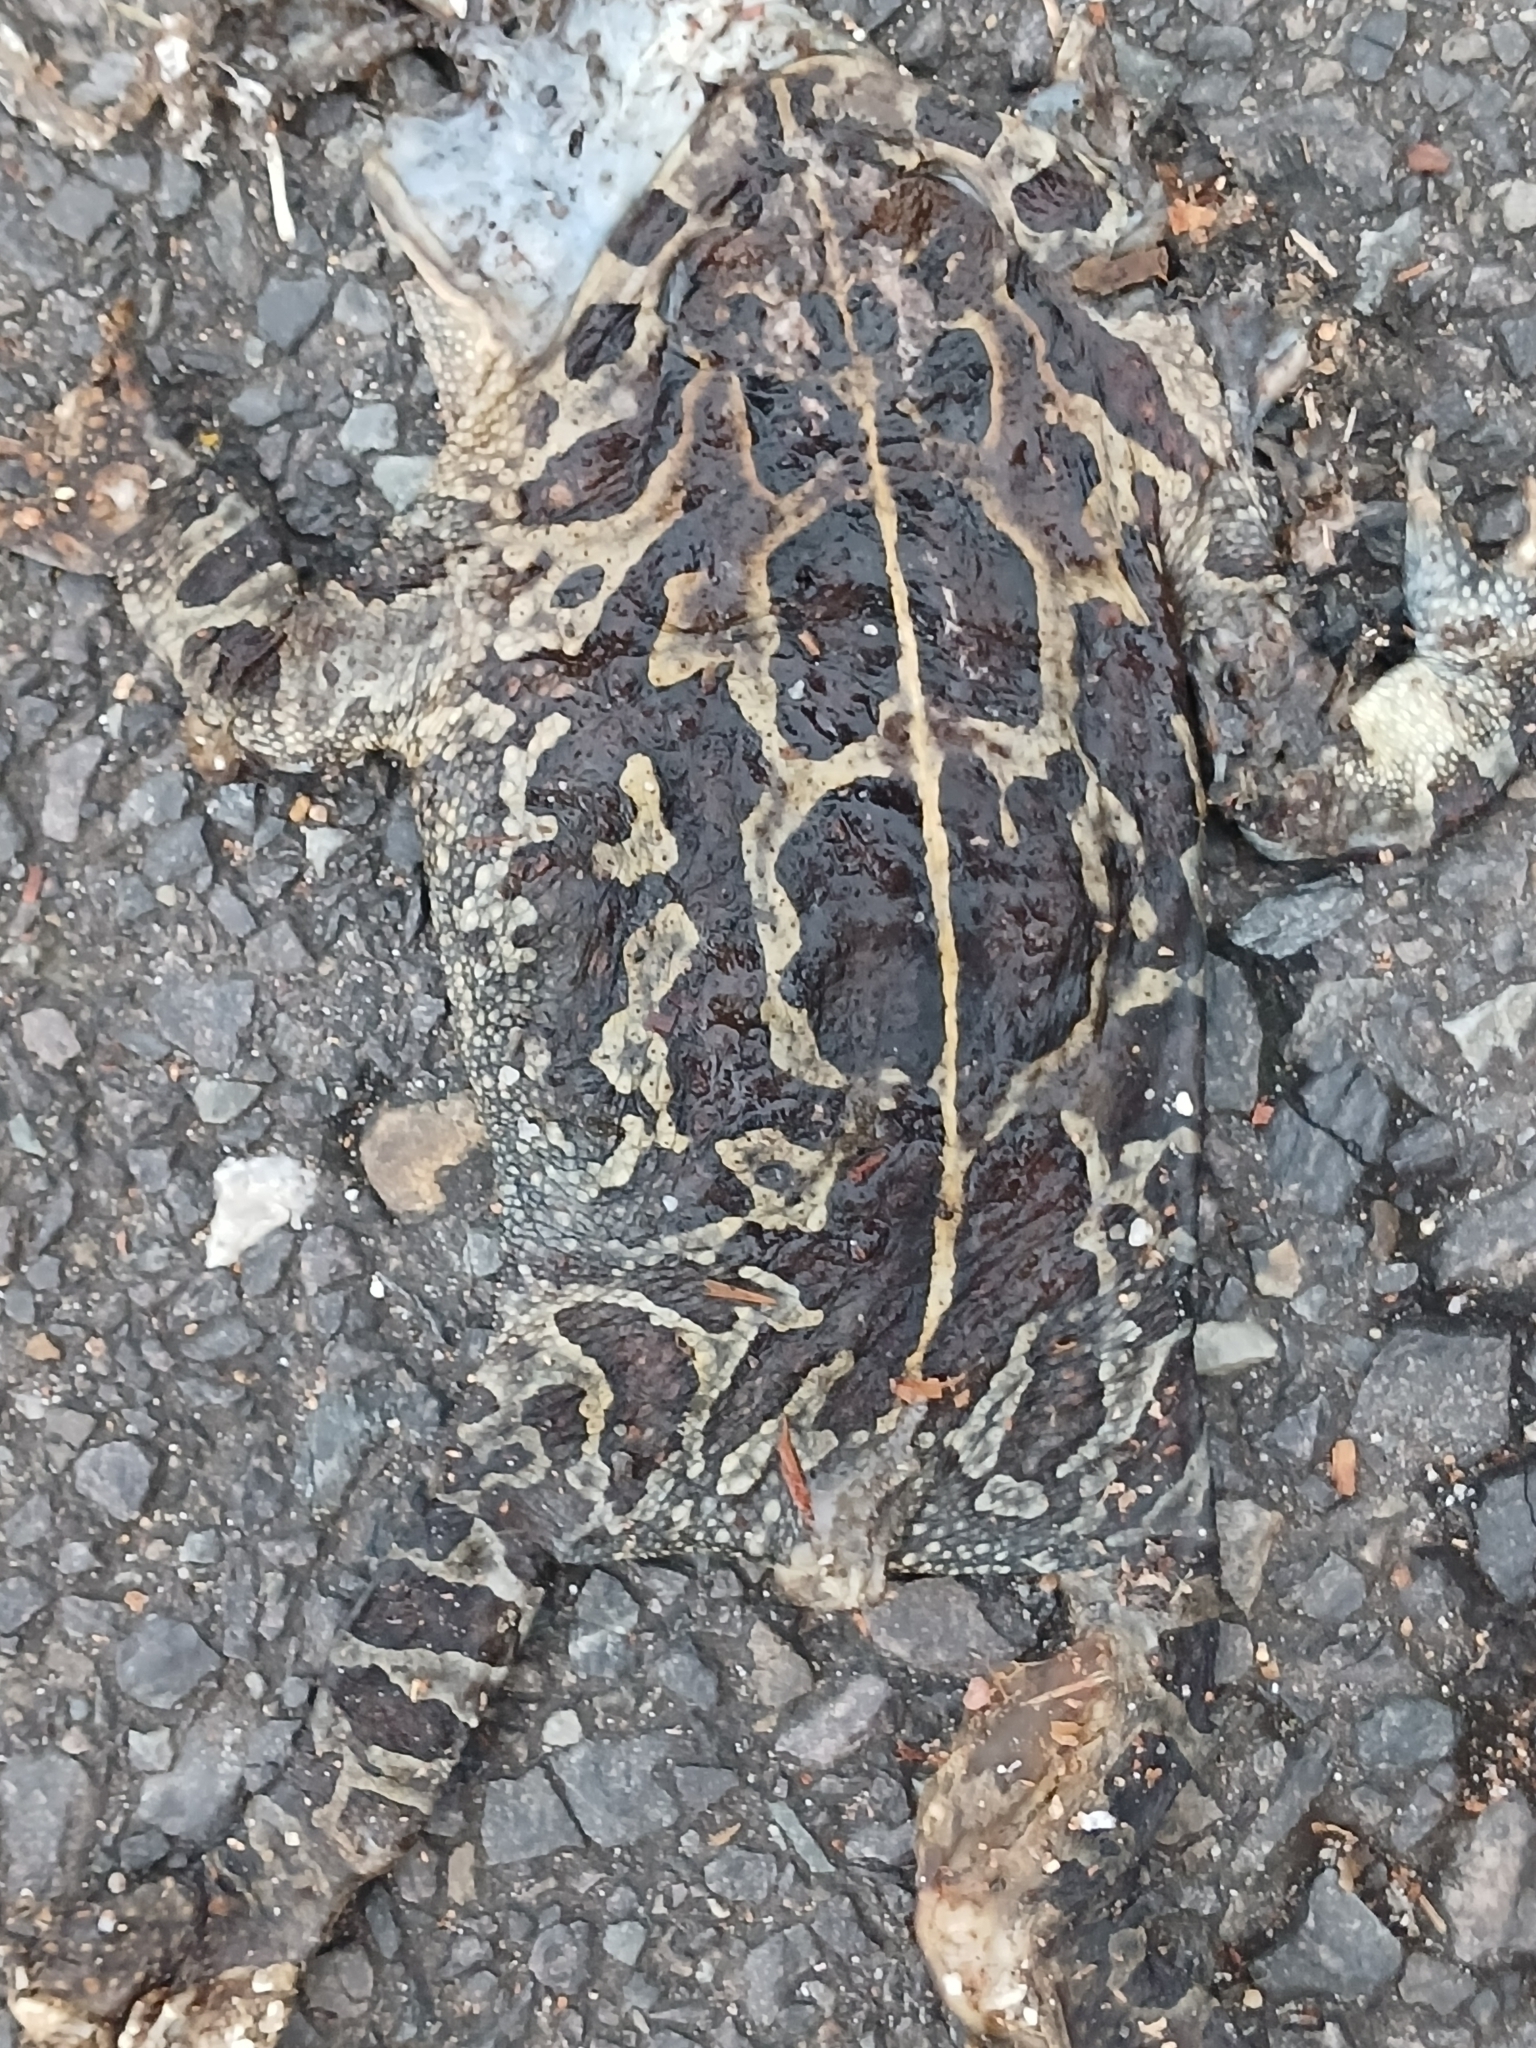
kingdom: Animalia
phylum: Chordata
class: Amphibia
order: Anura
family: Bufonidae
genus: Sclerophrys
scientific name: Sclerophrys pantherina
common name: Panther toad
